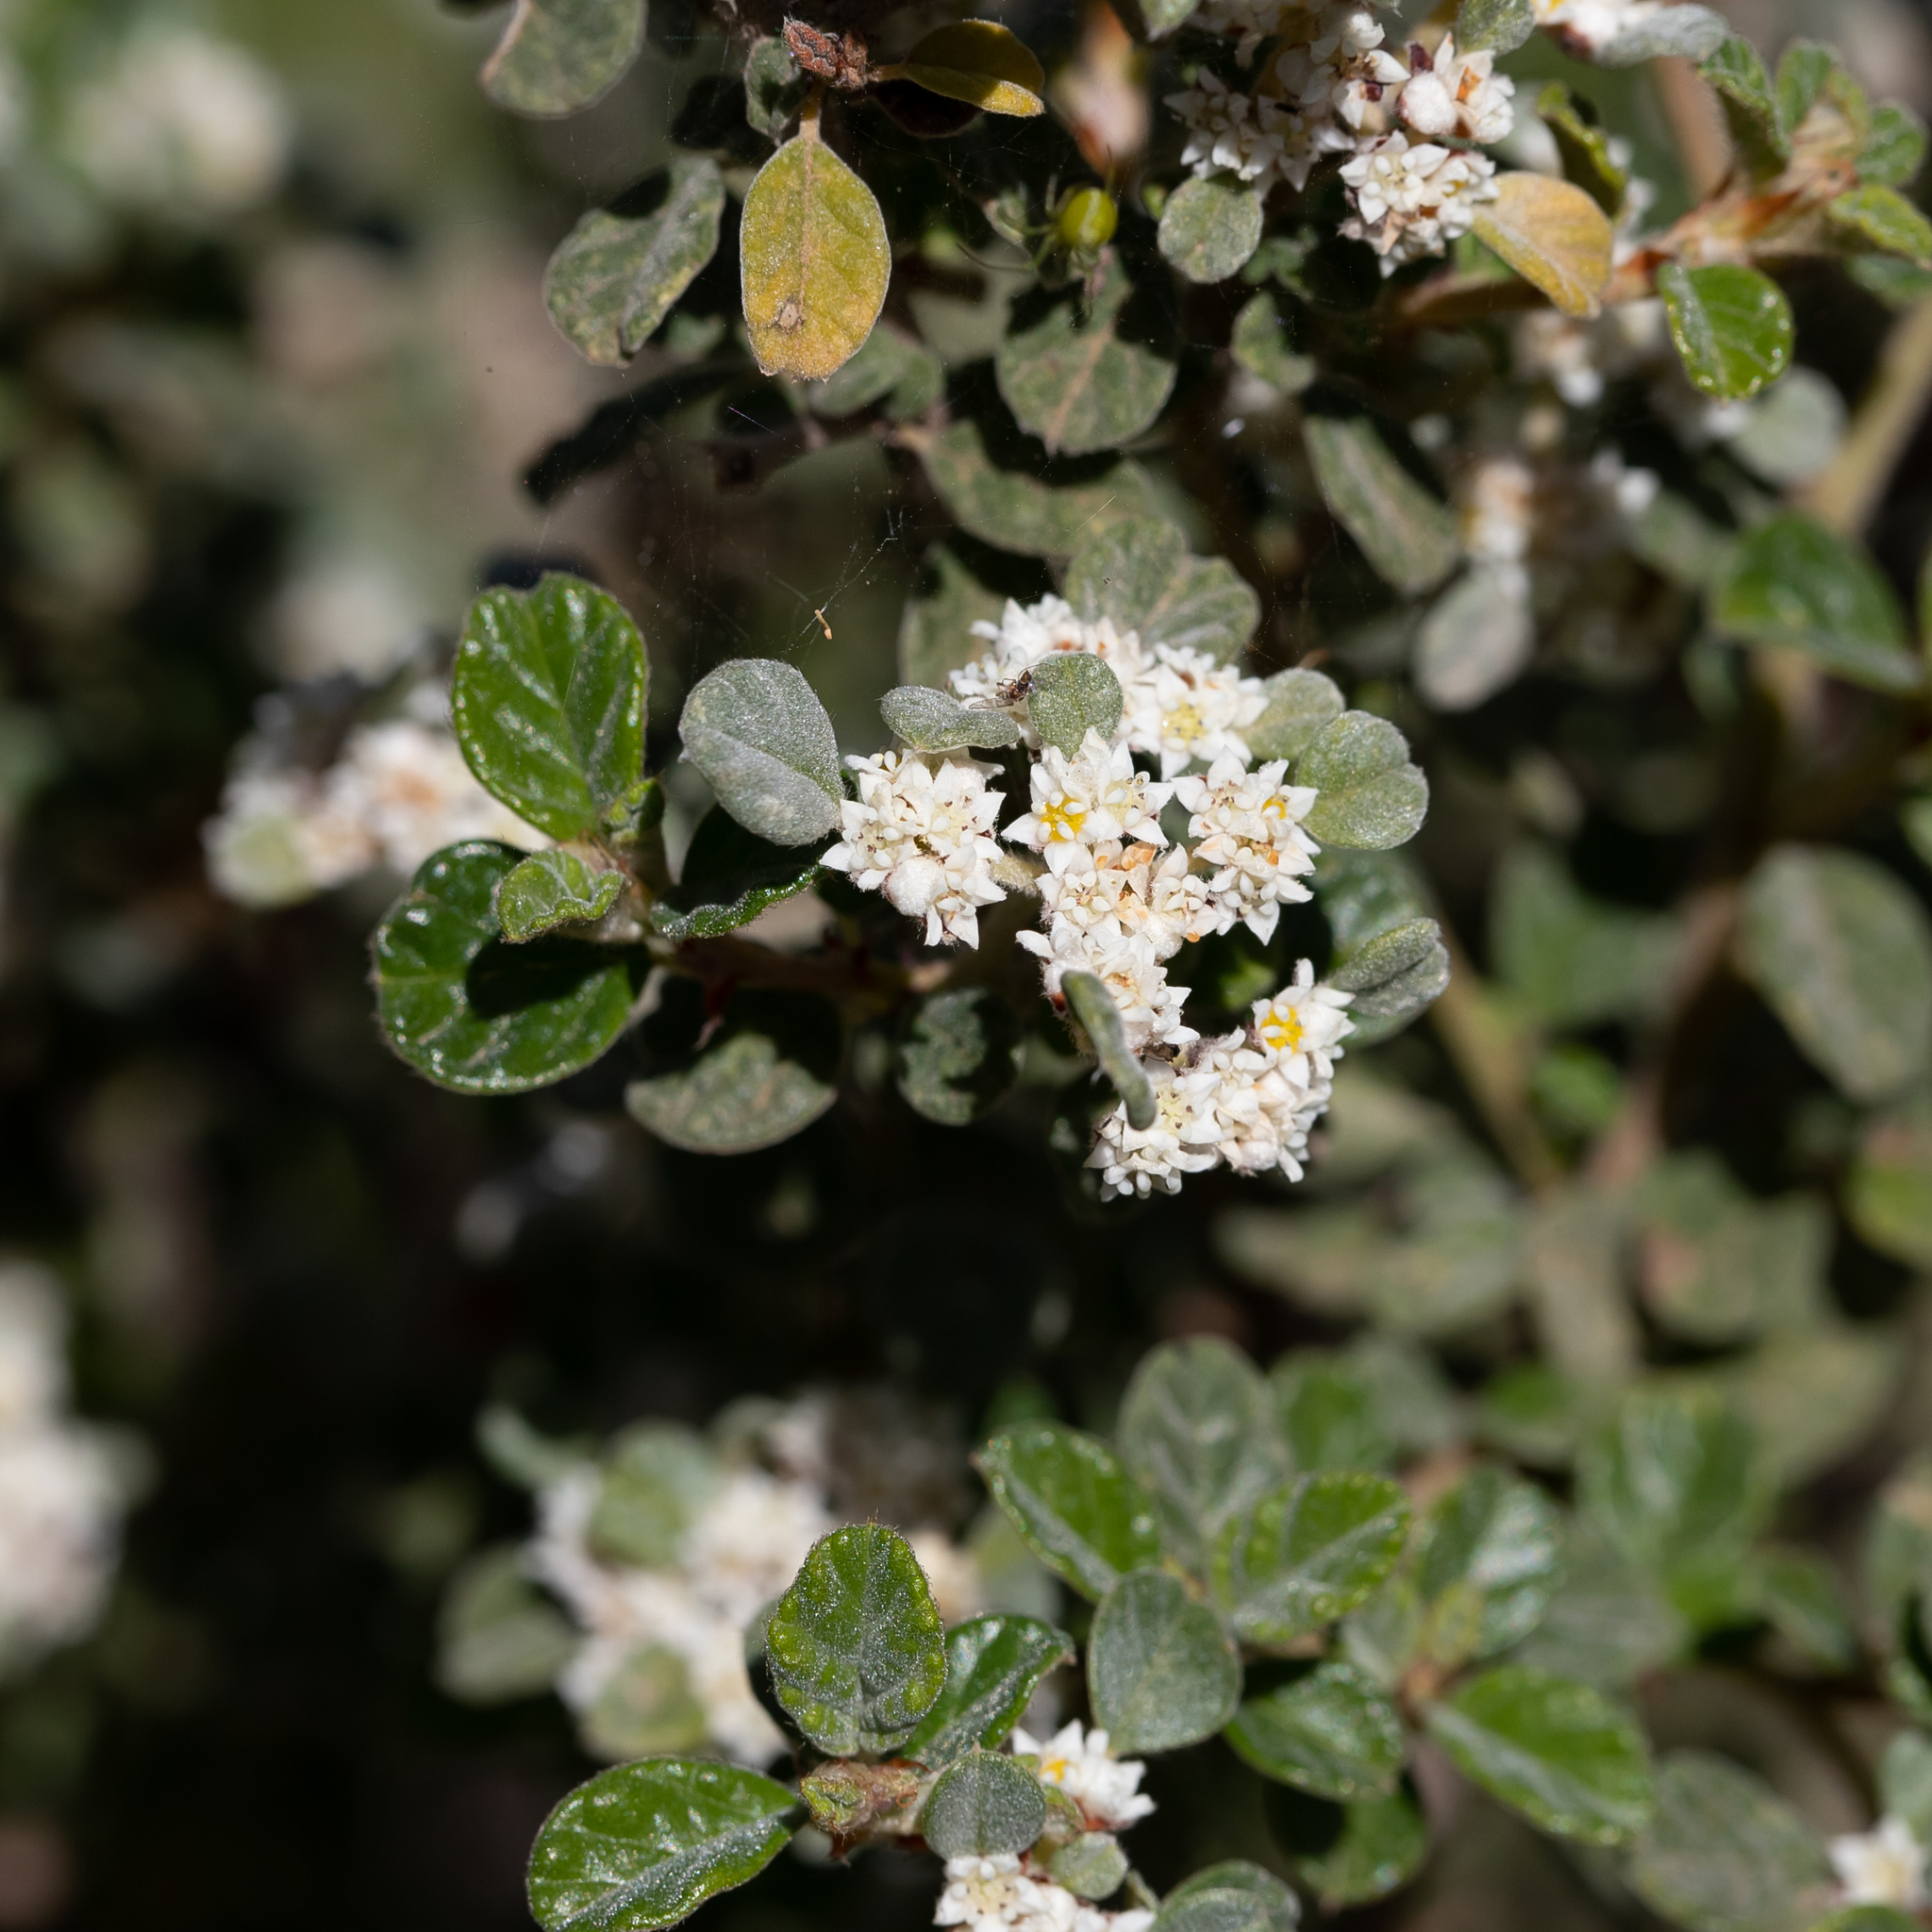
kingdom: Plantae
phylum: Tracheophyta
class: Magnoliopsida
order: Rosales
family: Rhamnaceae
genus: Spyridium
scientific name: Spyridium parvifolium
